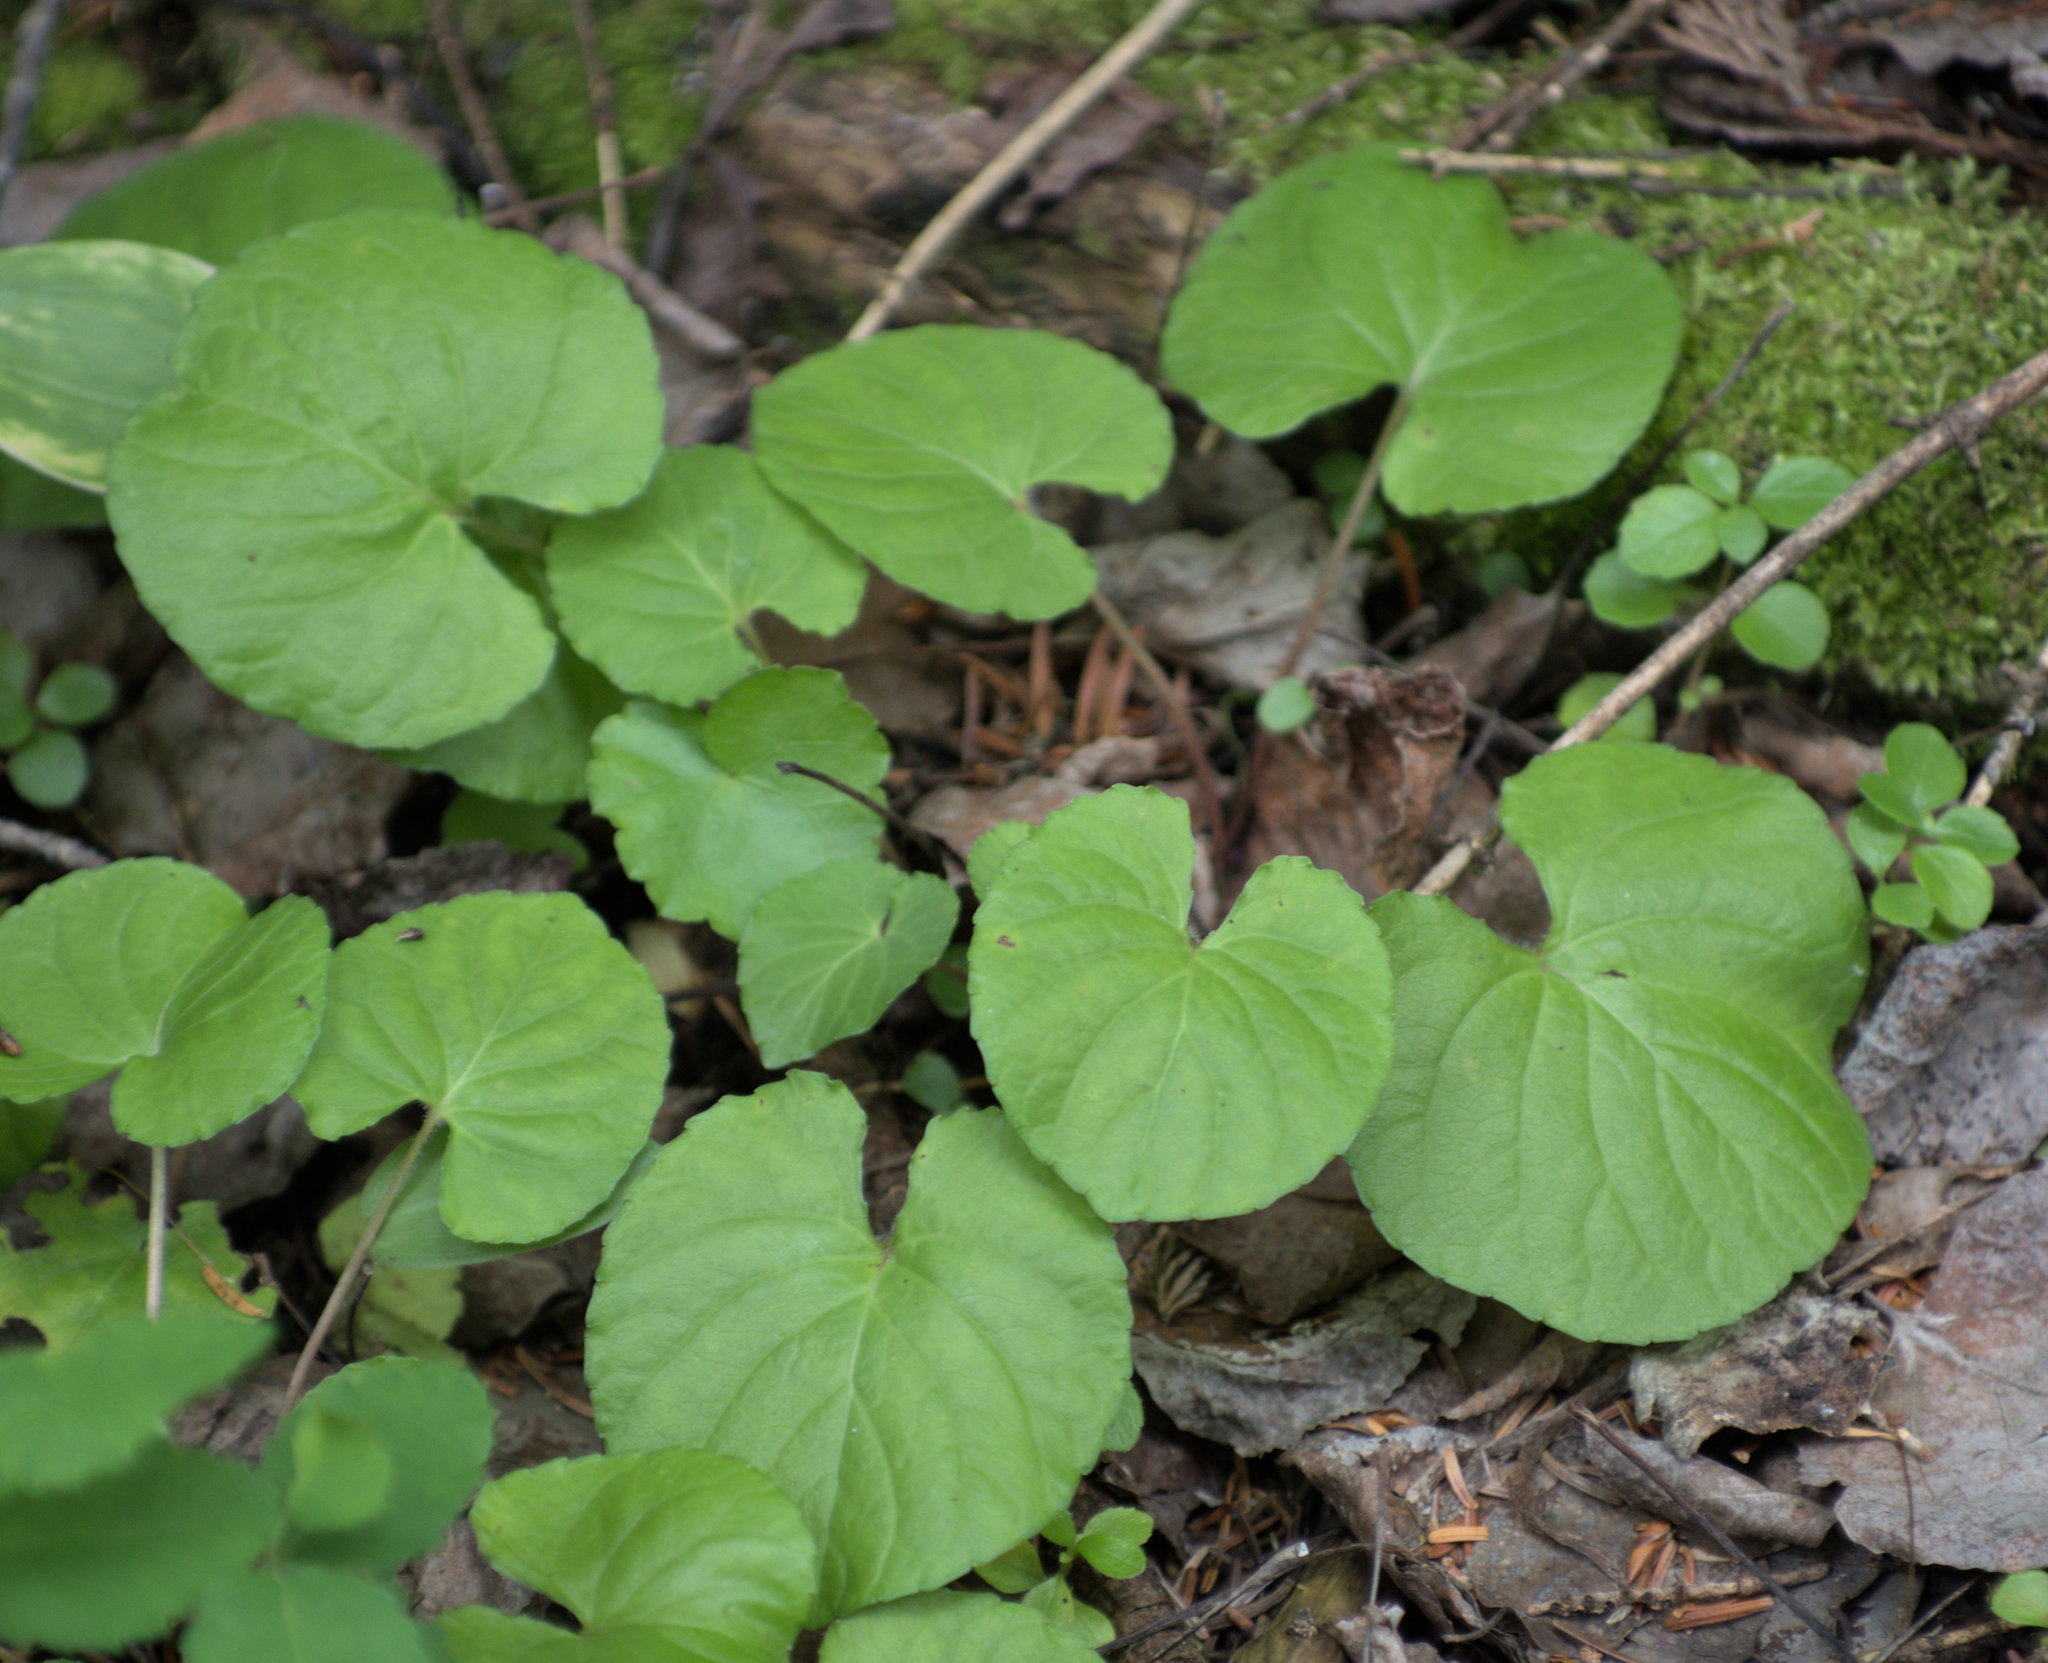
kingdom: Plantae
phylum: Tracheophyta
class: Magnoliopsida
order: Malpighiales
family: Violaceae
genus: Viola
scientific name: Viola renifolia
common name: Kidney-leaf violet
